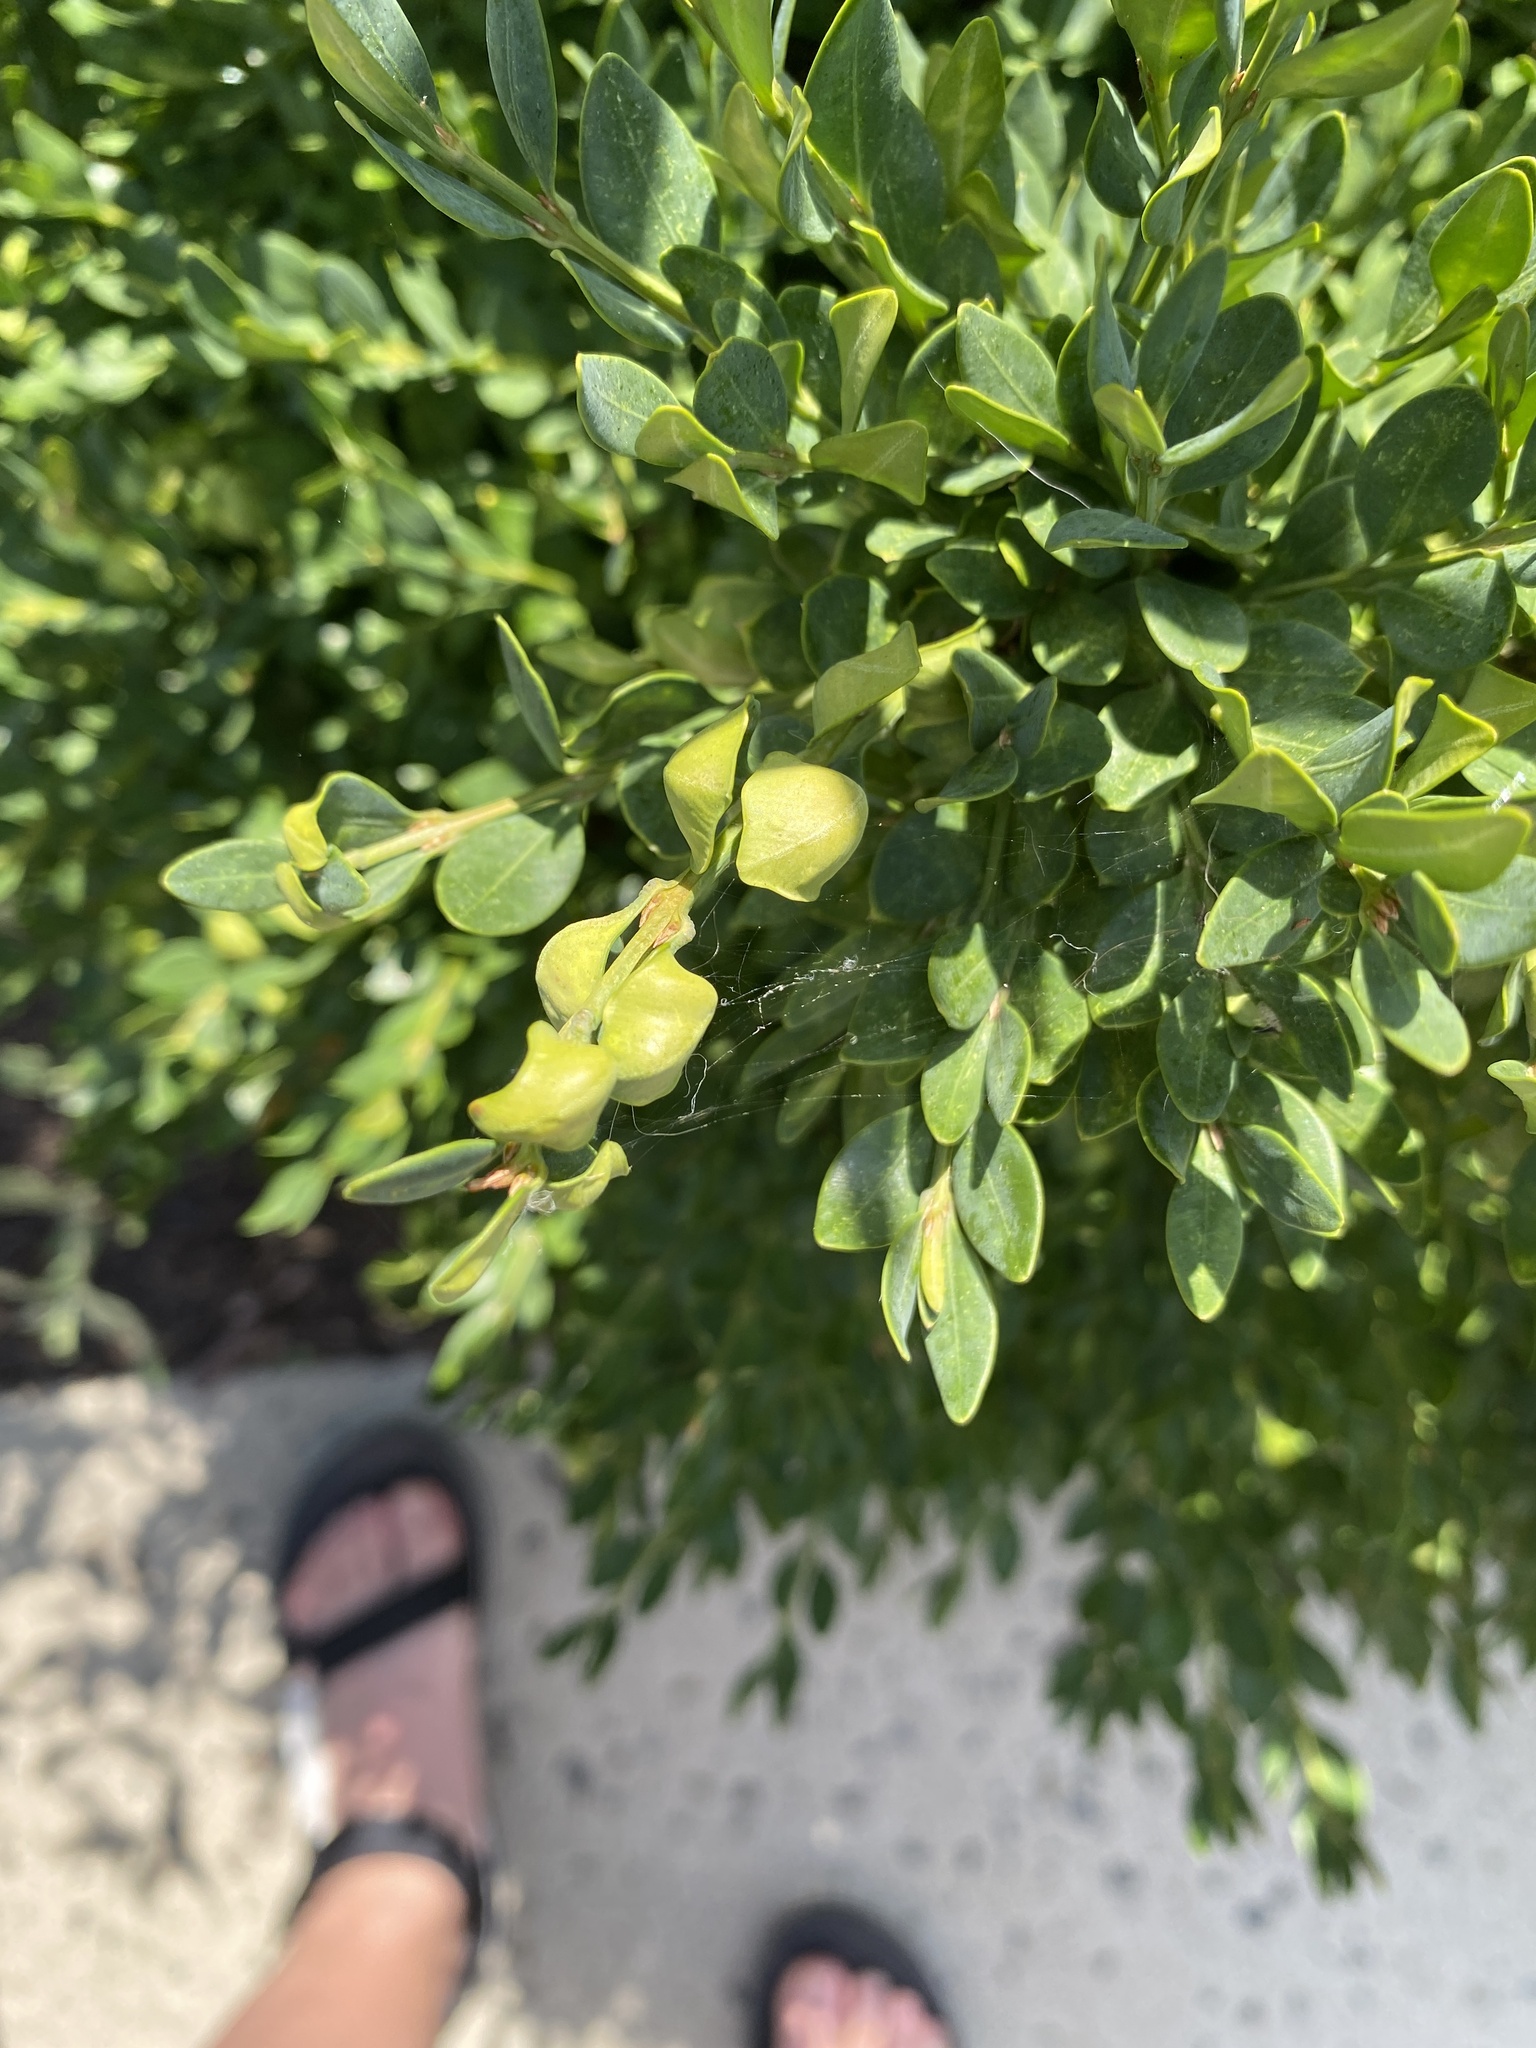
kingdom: Animalia
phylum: Arthropoda
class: Insecta
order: Hemiptera
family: Psyllidae
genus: Psylla
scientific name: Psylla buxi
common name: Boxwood psyllid
